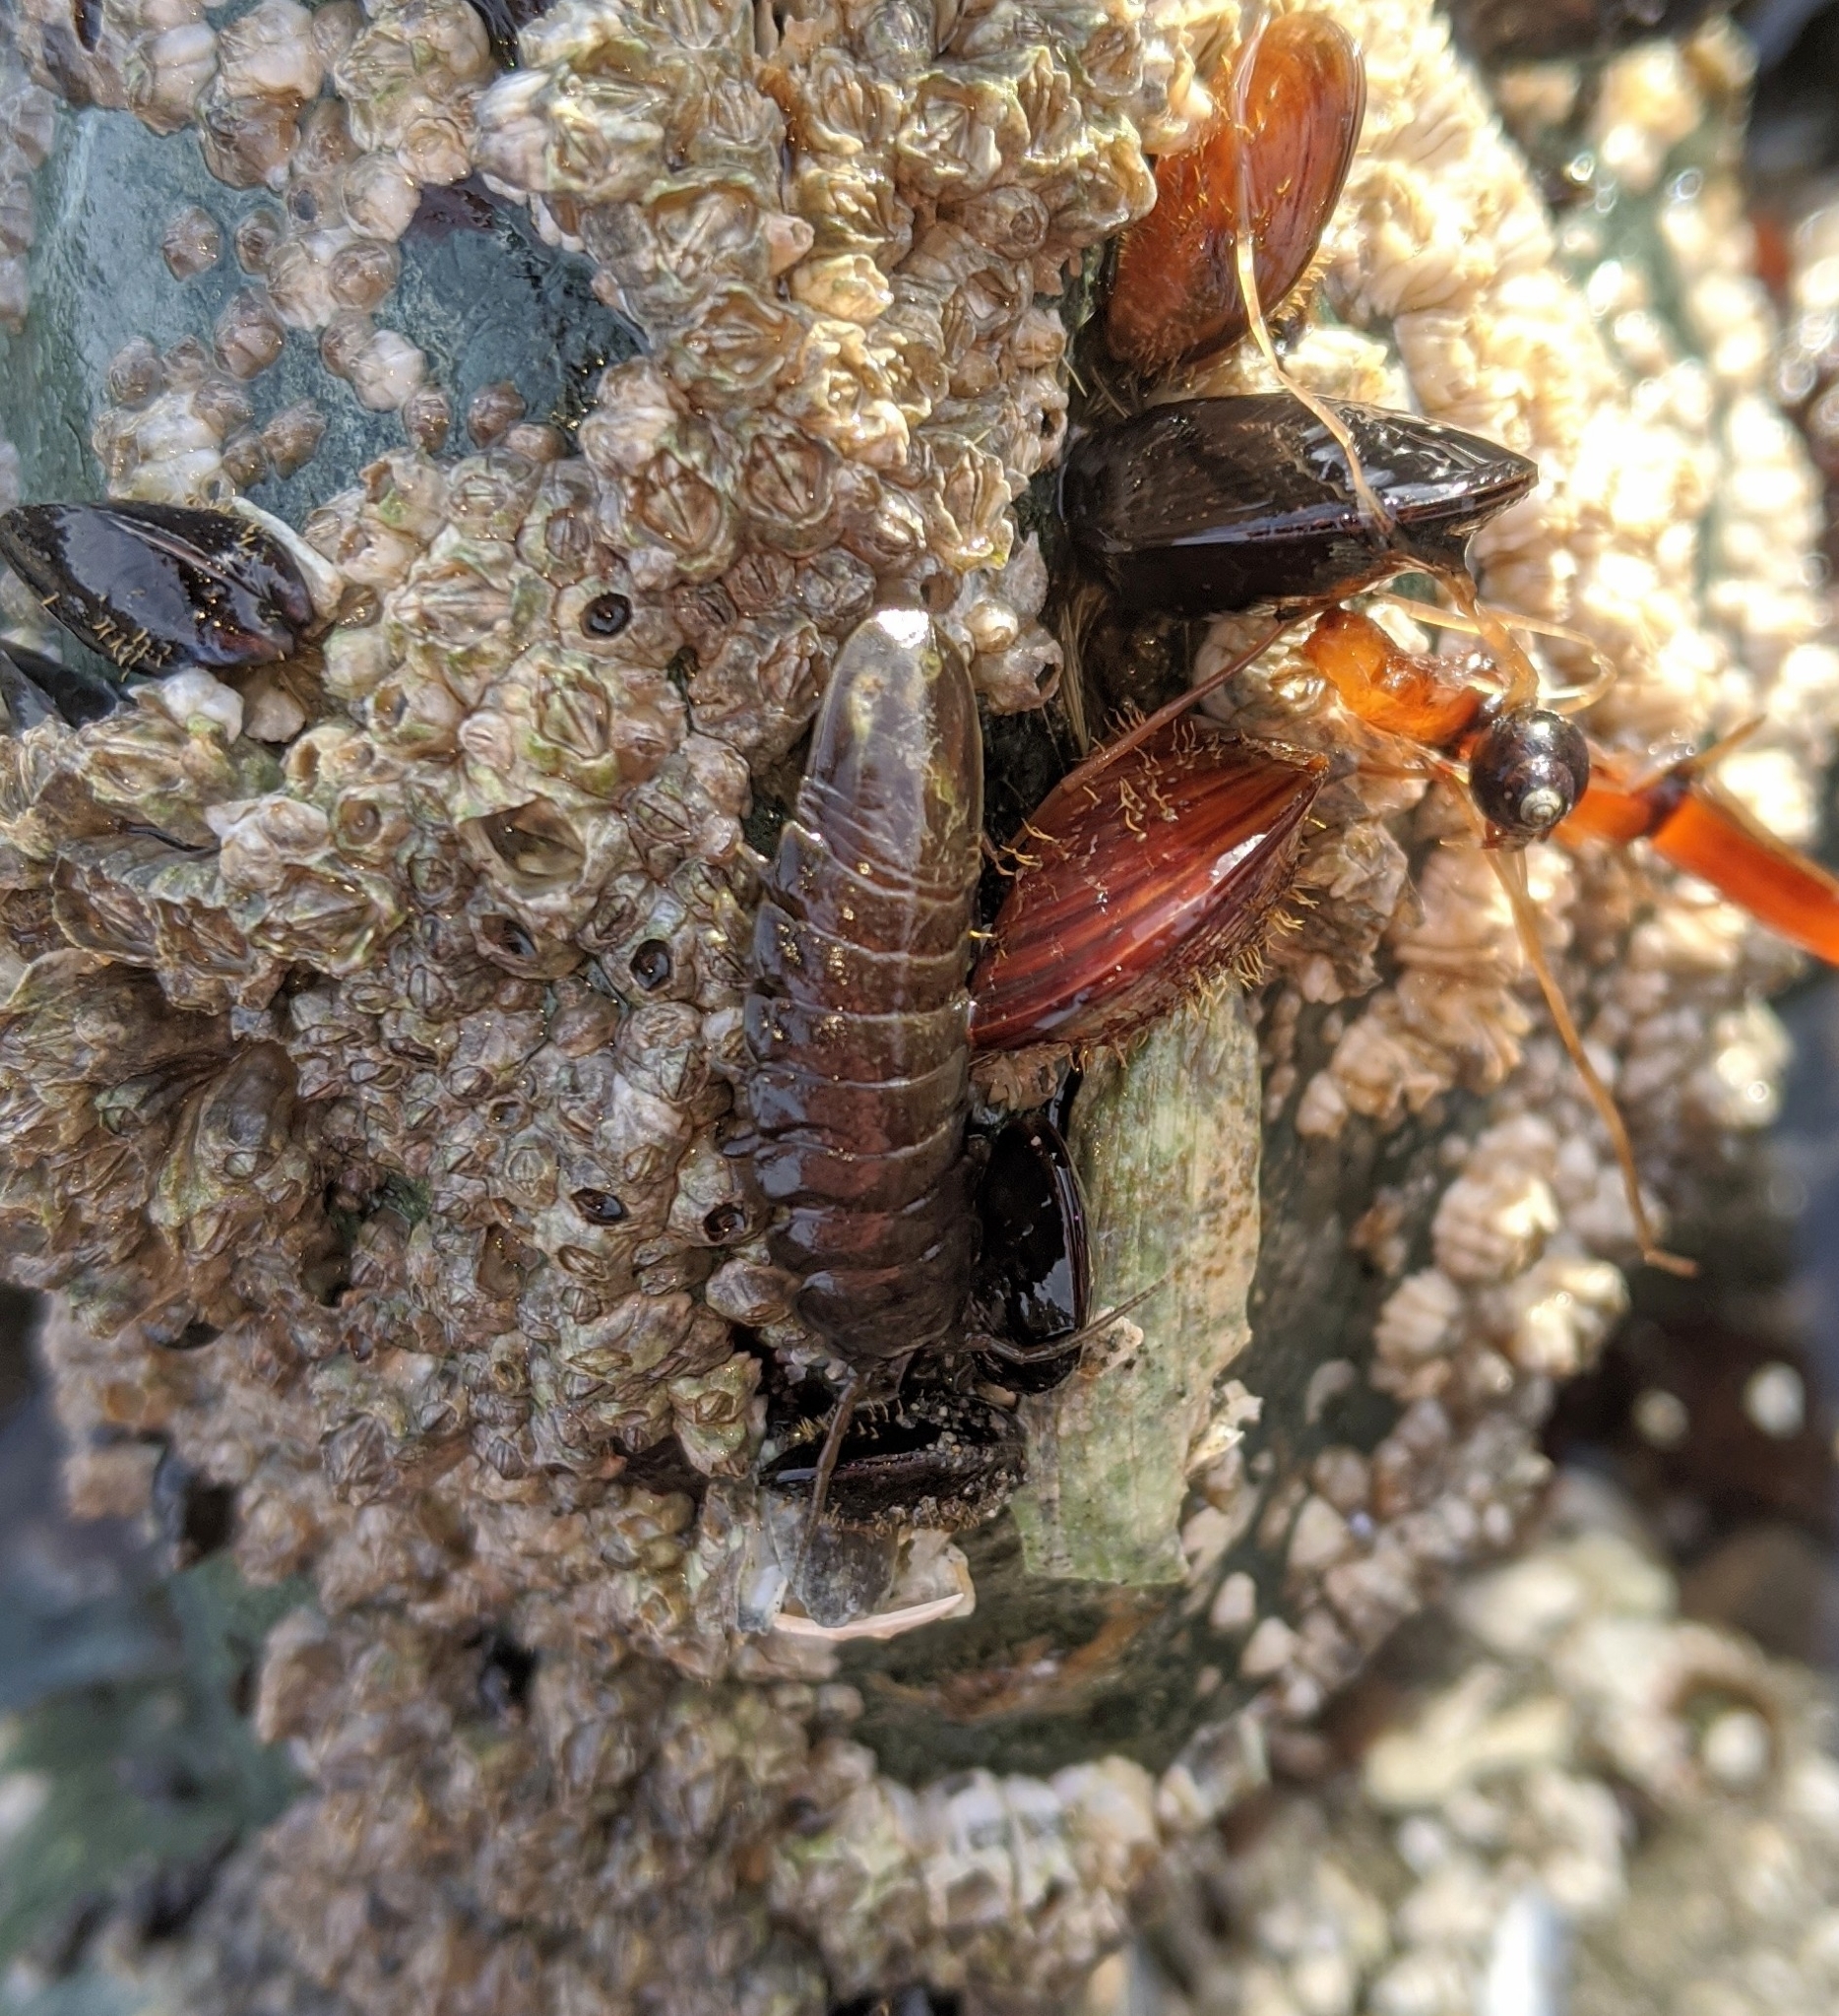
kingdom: Animalia
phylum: Arthropoda
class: Malacostraca
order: Isopoda
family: Idoteidae
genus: Pentidotea
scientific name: Pentidotea wosnesenskii
